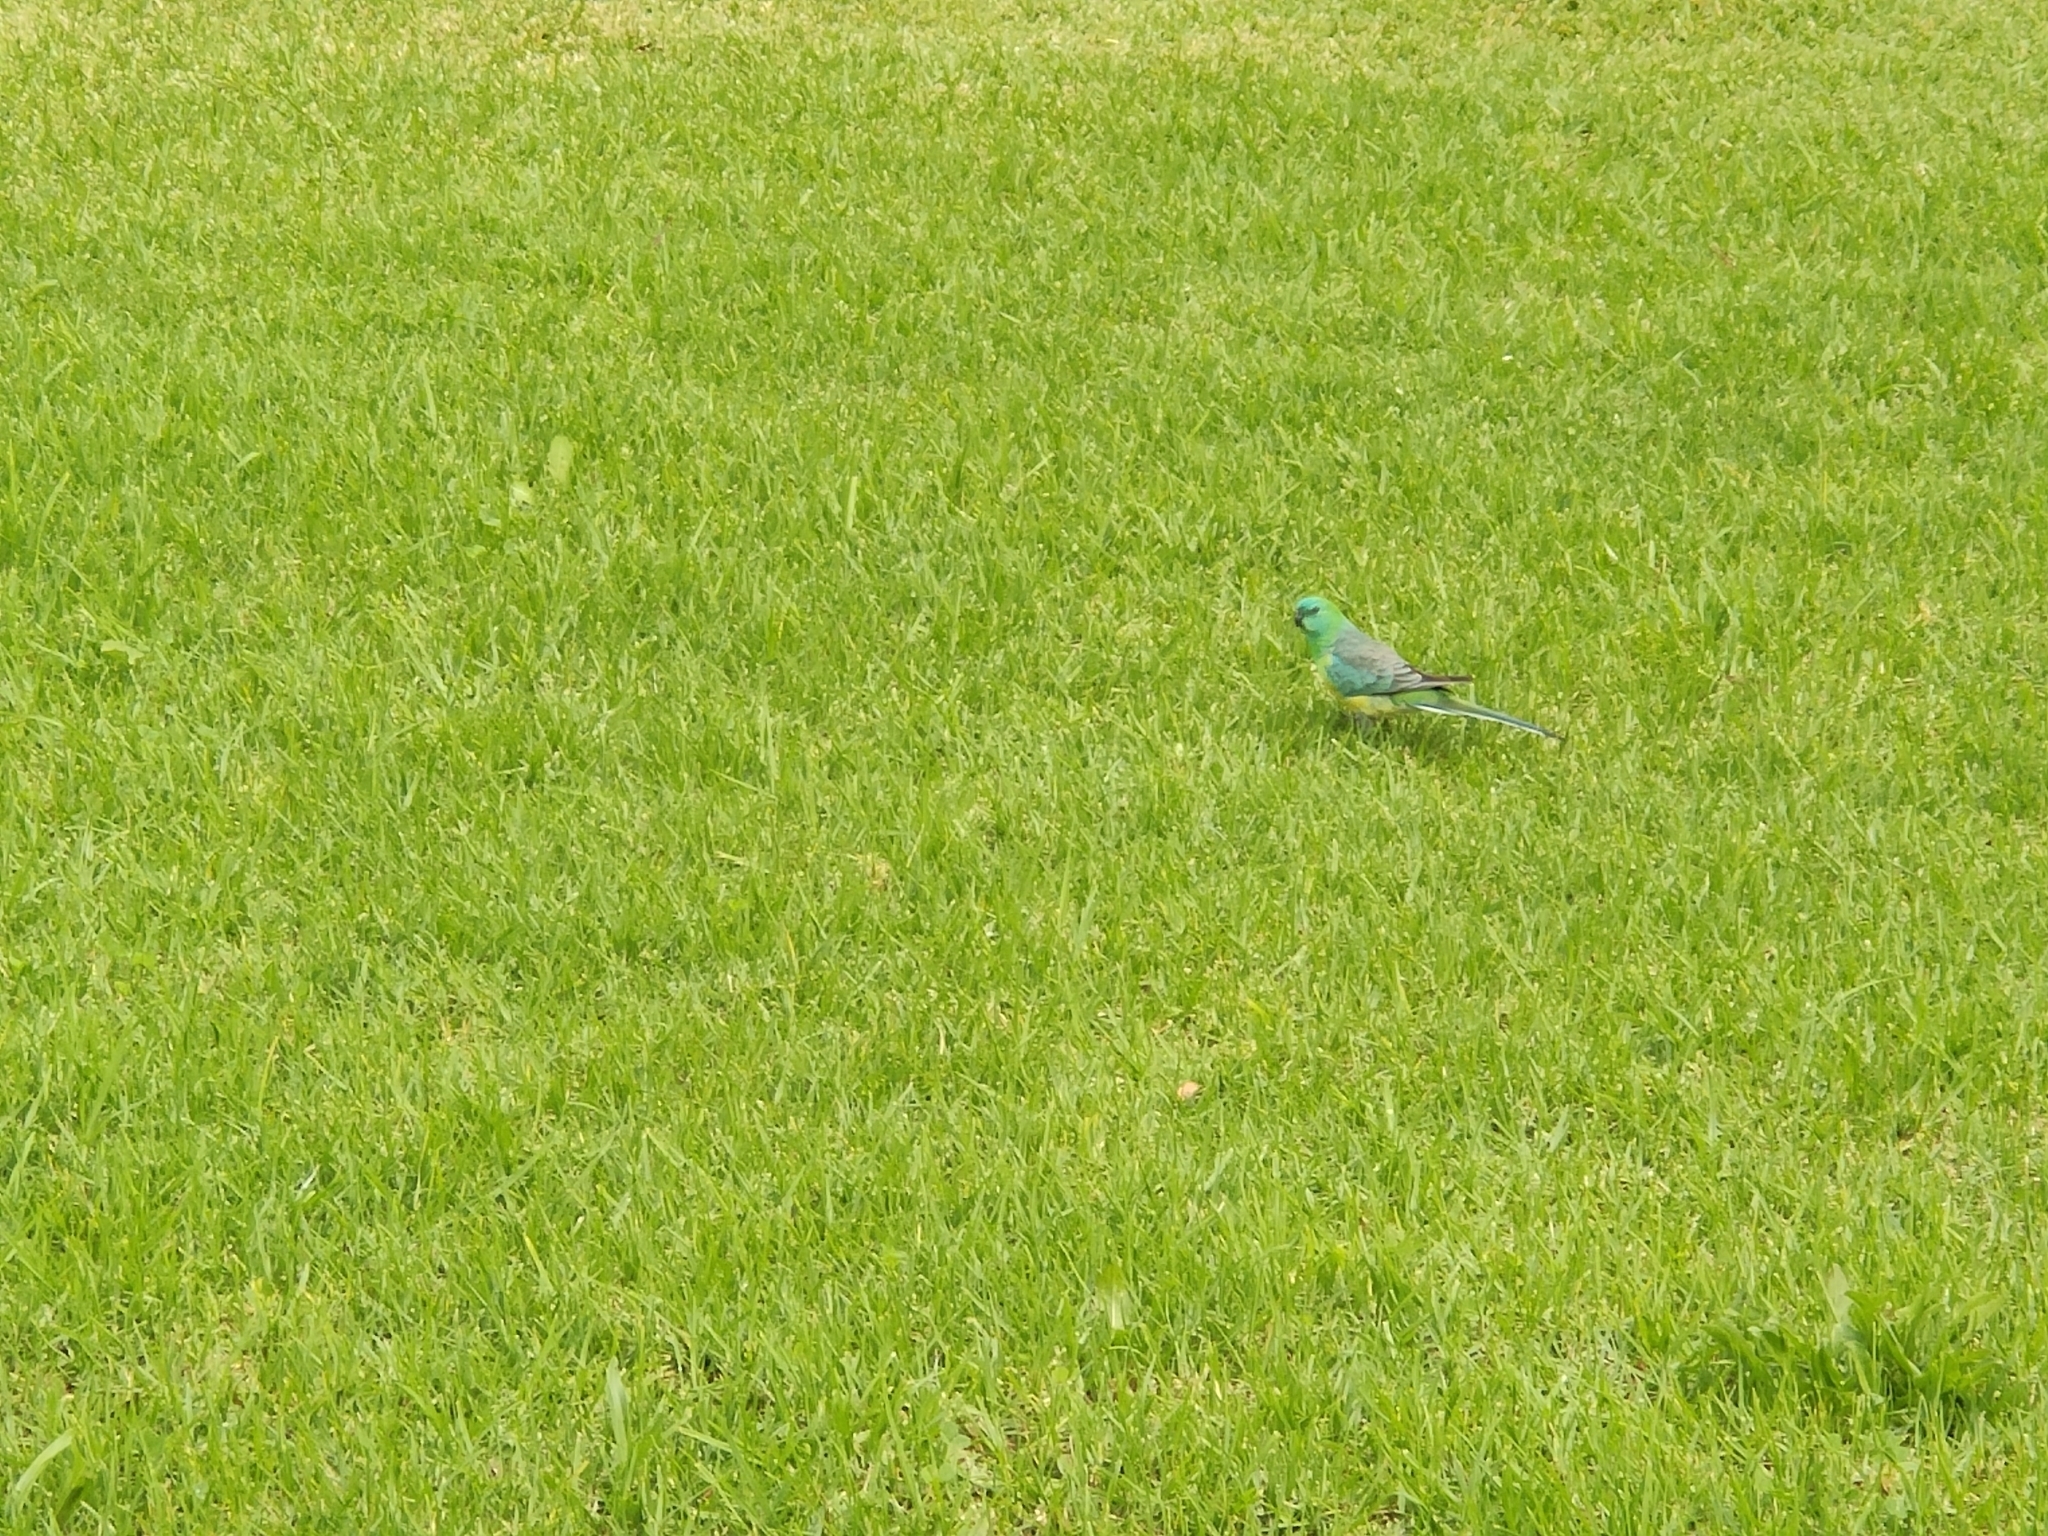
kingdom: Animalia
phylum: Chordata
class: Aves
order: Psittaciformes
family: Psittacidae
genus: Psephotus
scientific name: Psephotus haematonotus
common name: Red-rumped parrot
